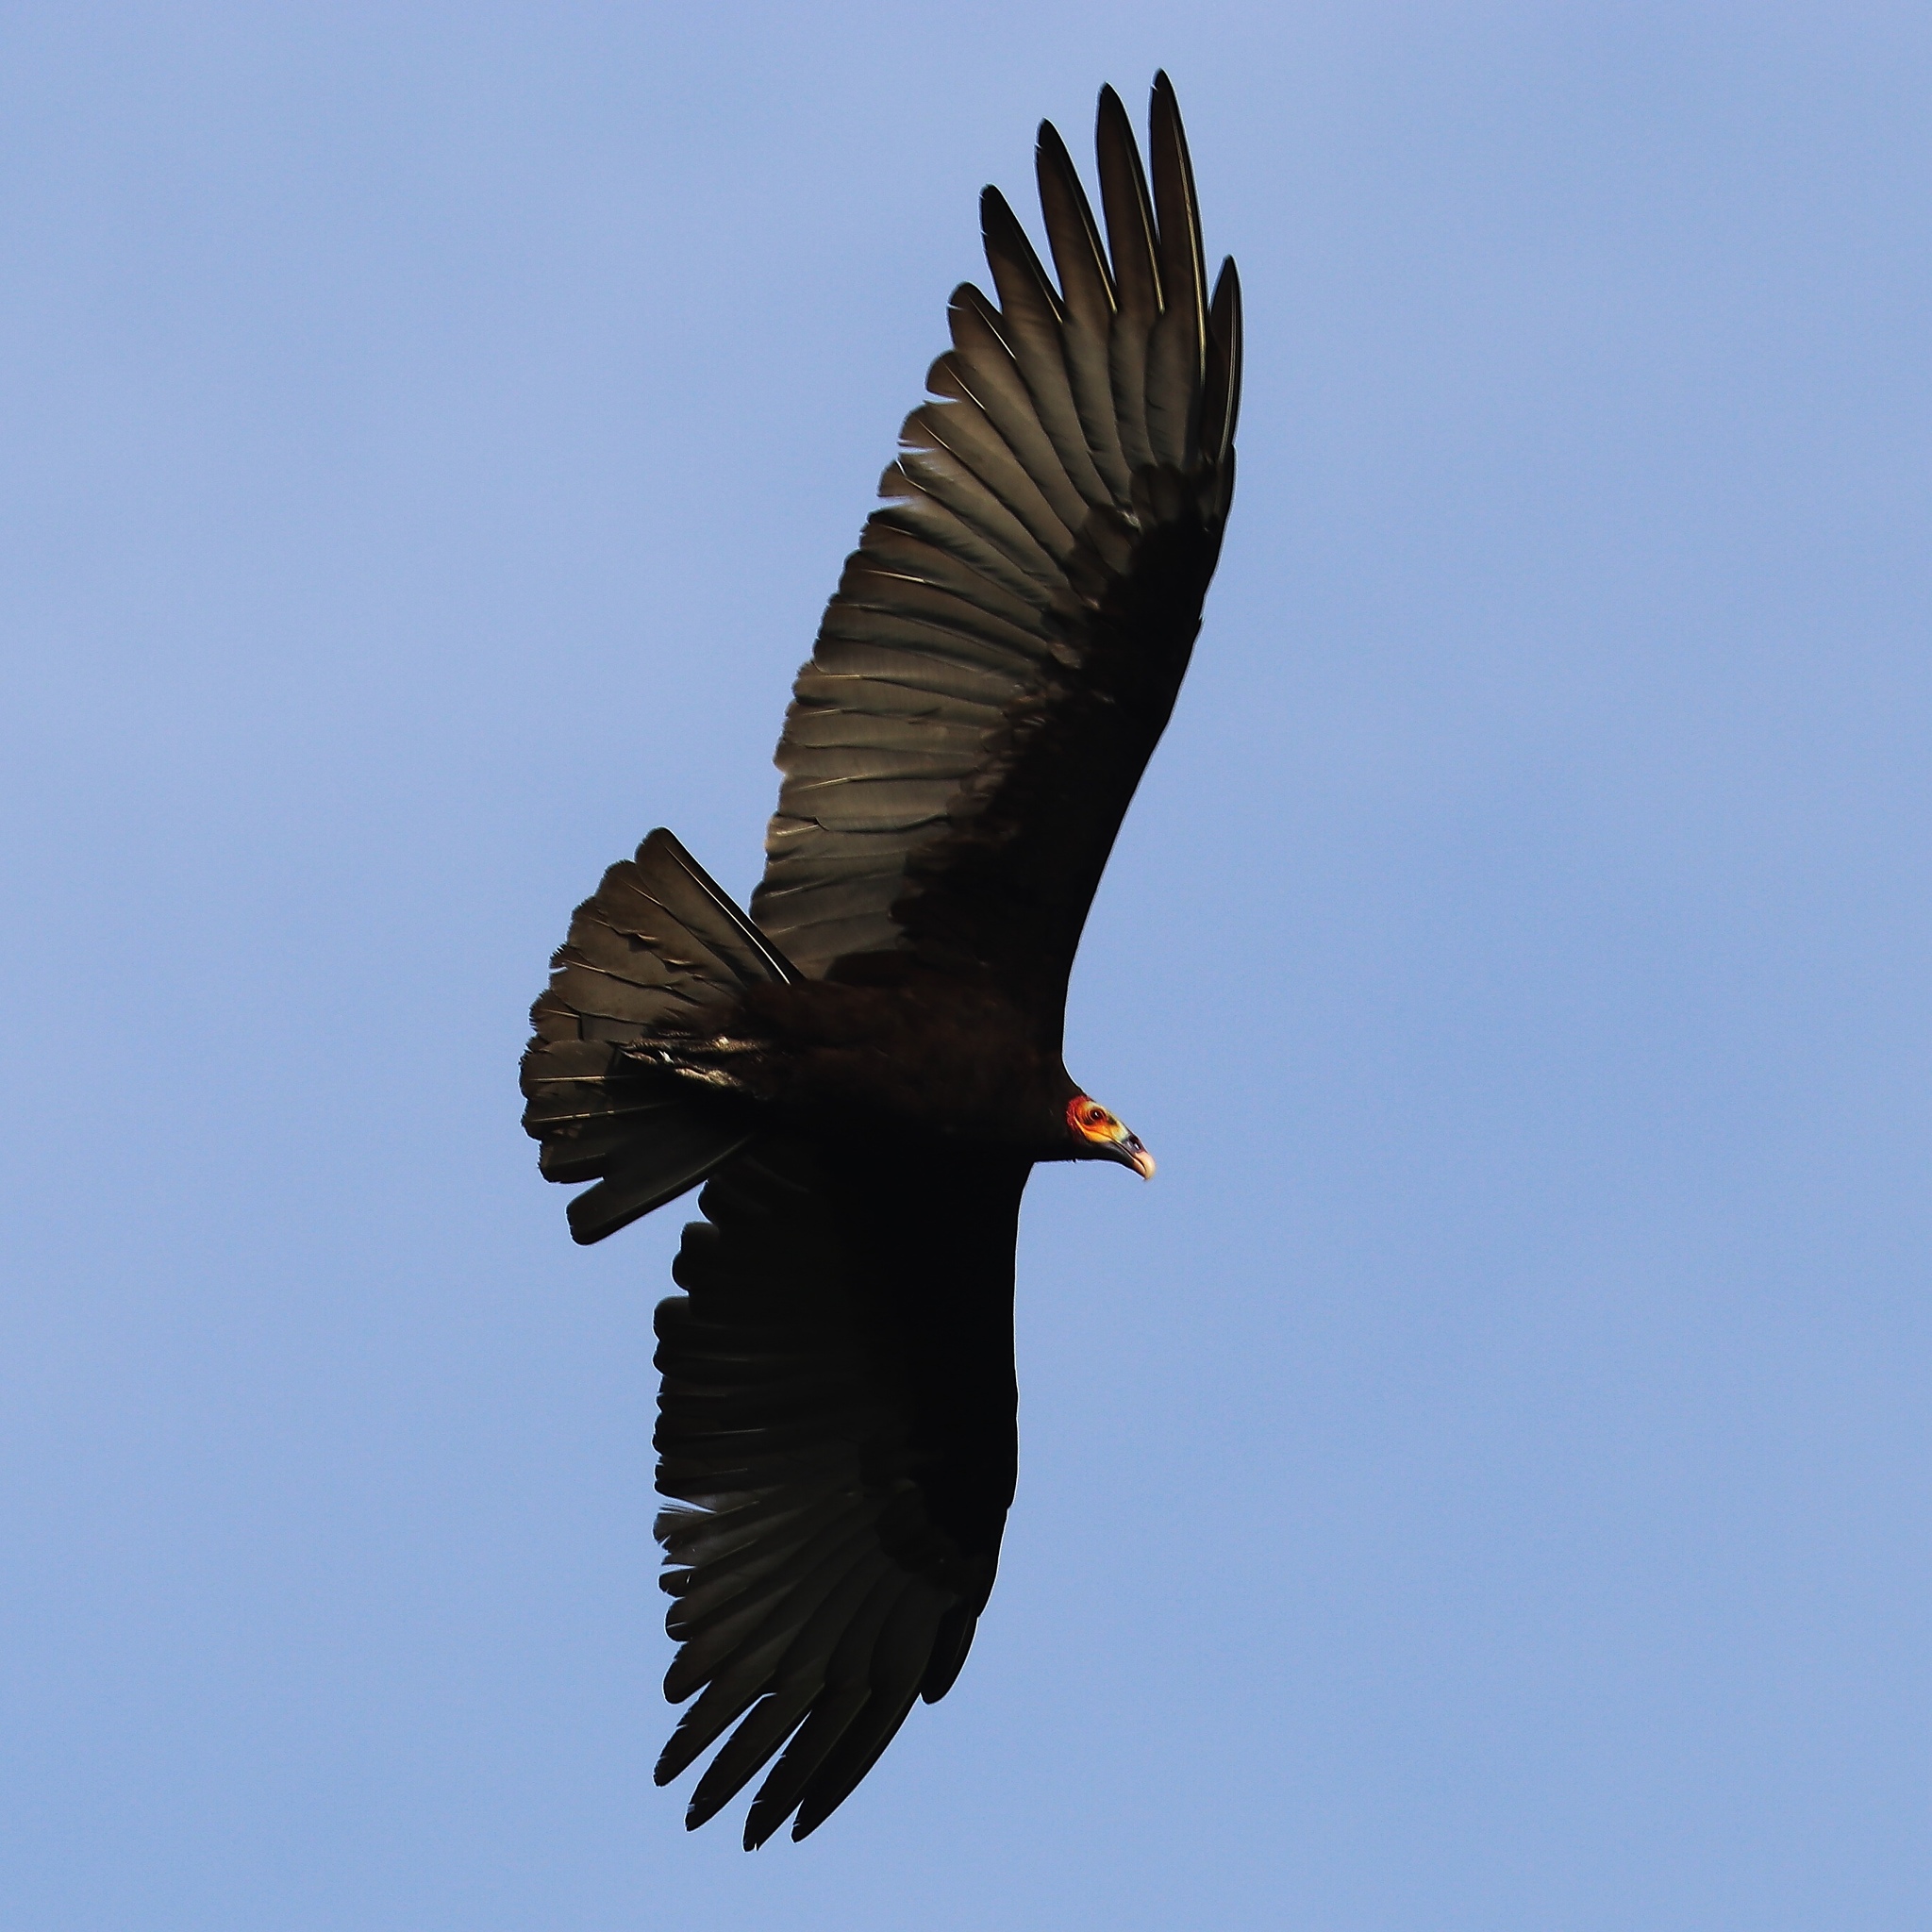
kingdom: Animalia
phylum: Chordata
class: Aves
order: Accipitriformes
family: Cathartidae
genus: Cathartes
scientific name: Cathartes burrovianus
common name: Lesser yellow-headed vulture
